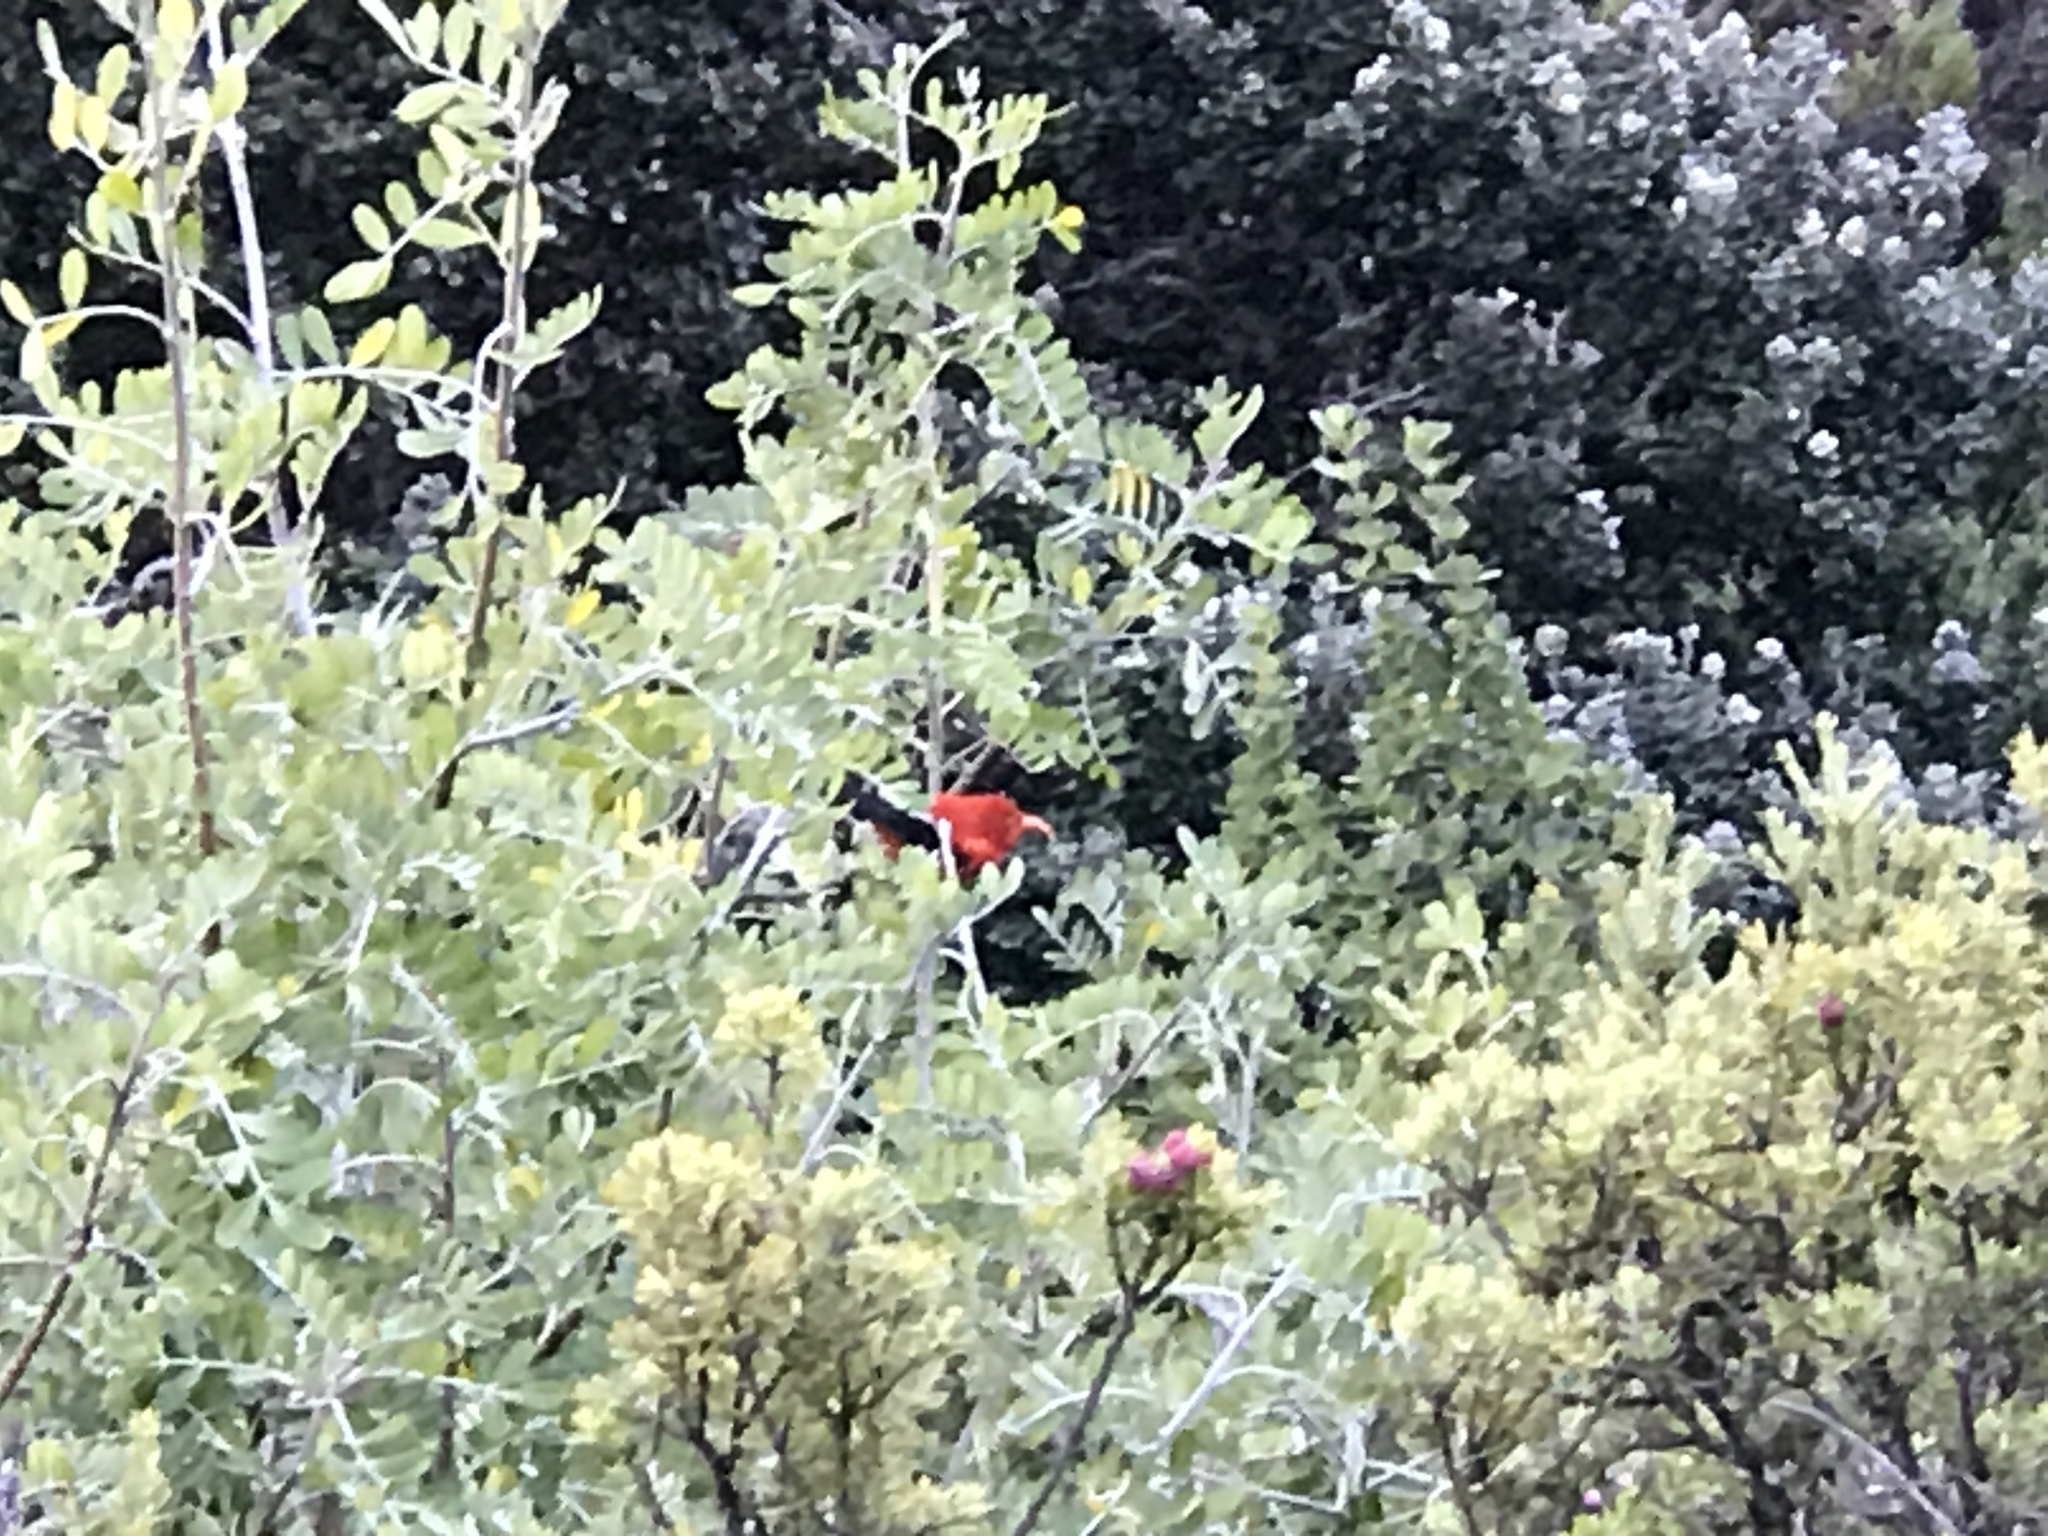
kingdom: Animalia
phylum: Chordata
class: Aves
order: Passeriformes
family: Fringillidae
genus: Vestiaria
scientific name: Vestiaria coccinea
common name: Iiwi
